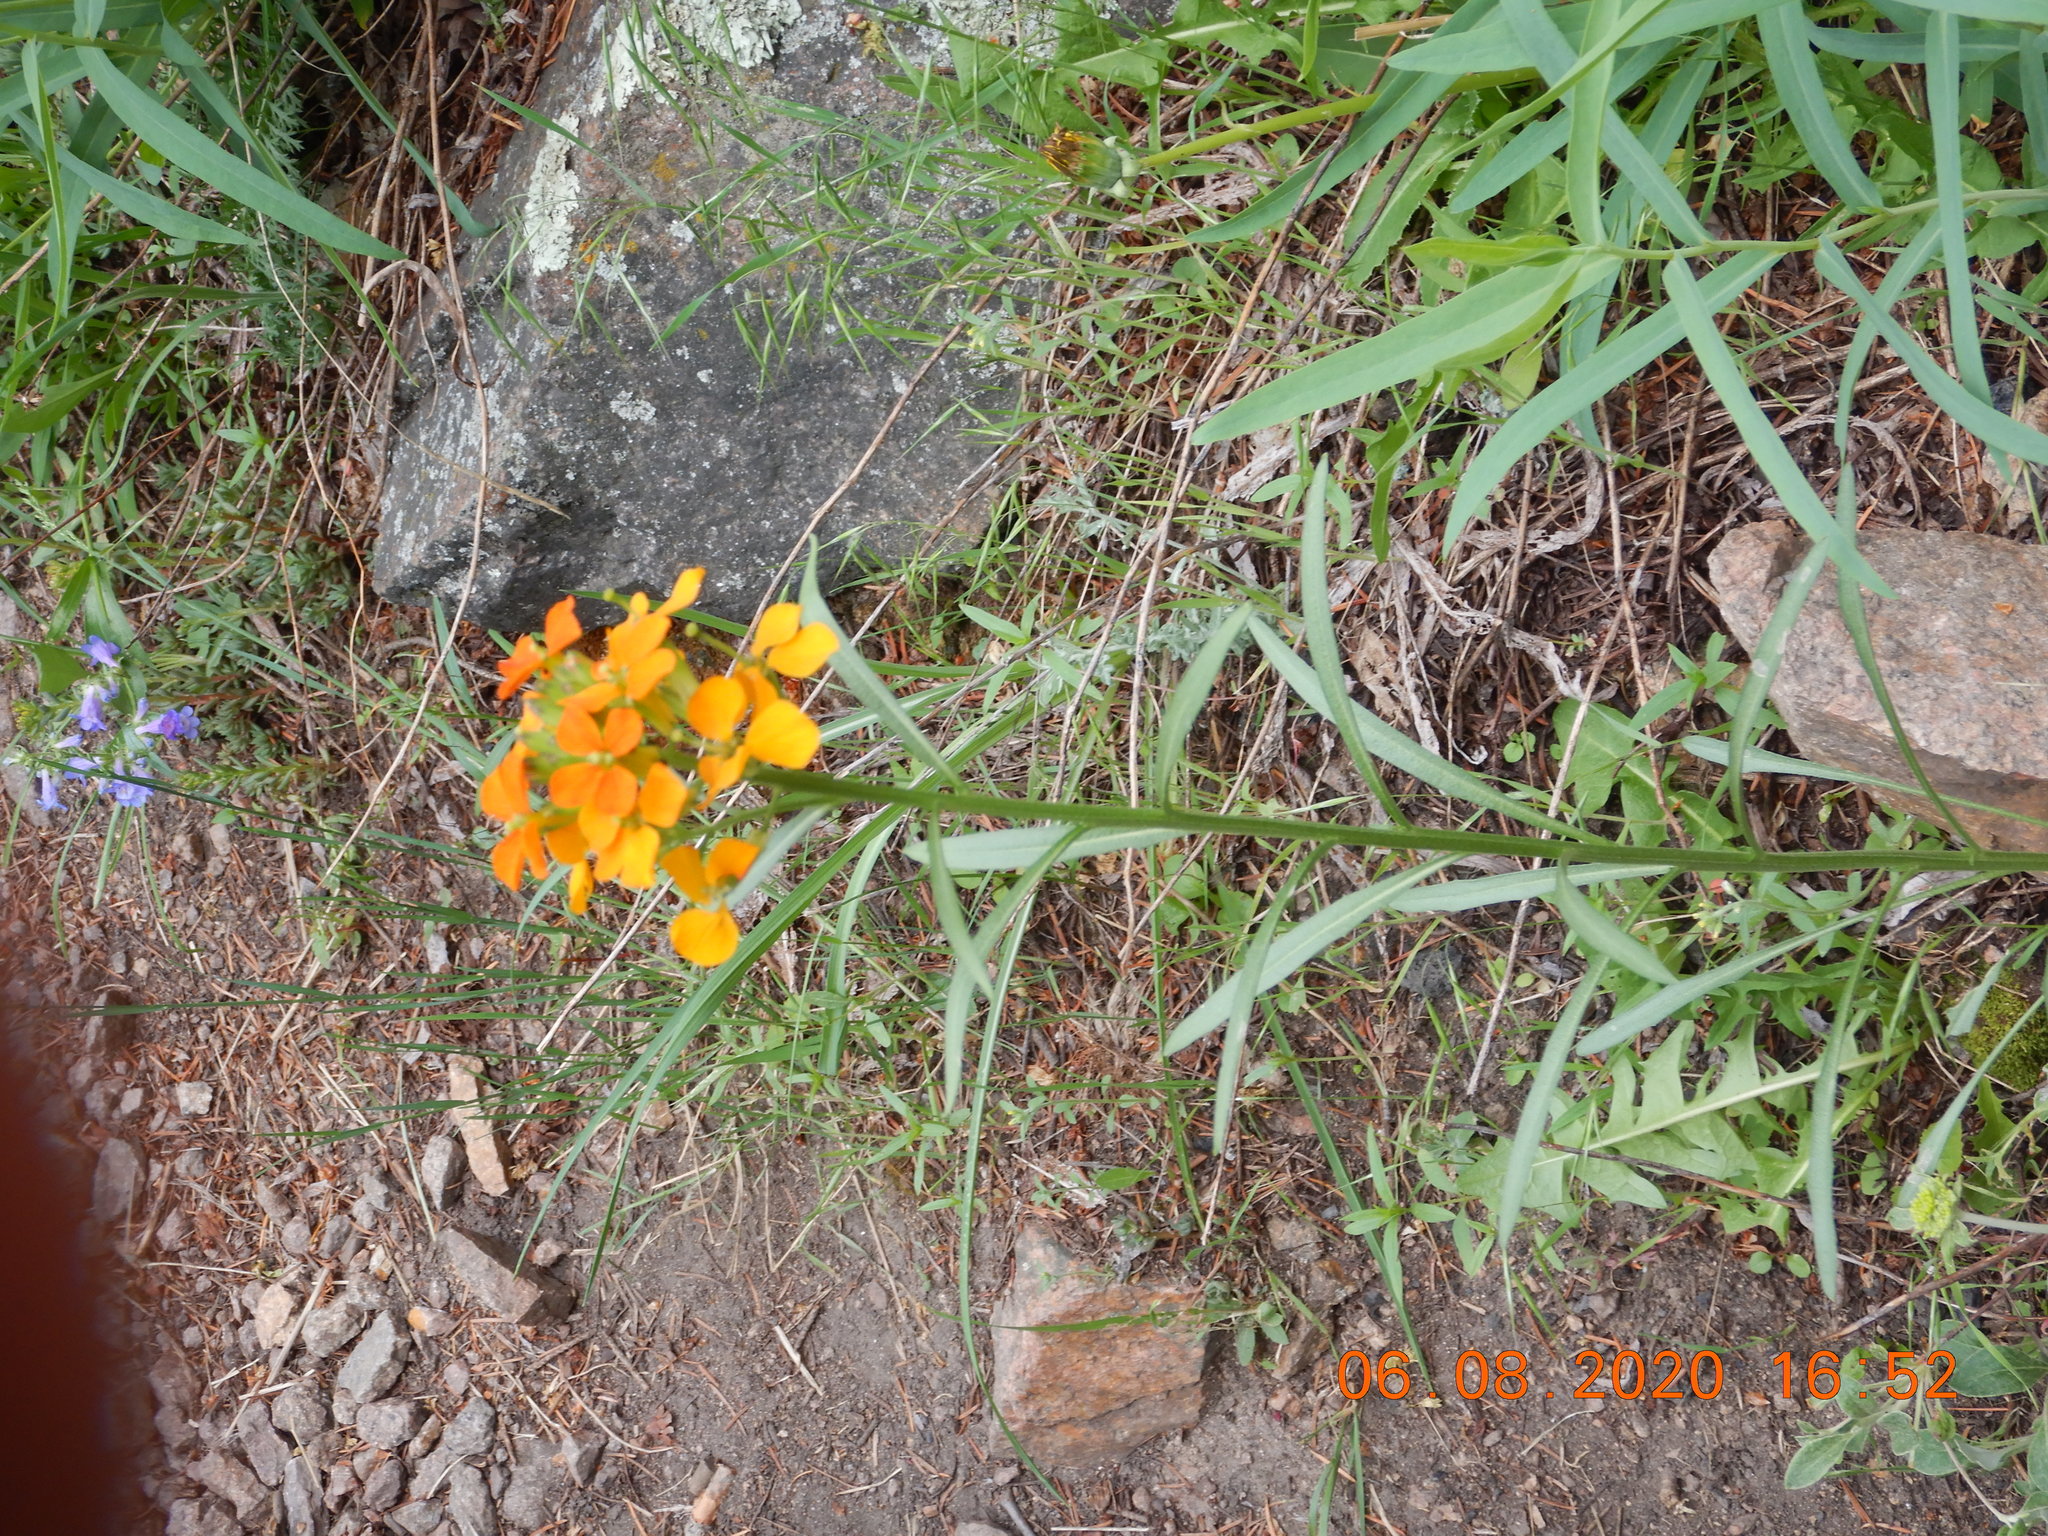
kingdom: Plantae
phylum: Tracheophyta
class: Magnoliopsida
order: Brassicales
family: Brassicaceae
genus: Erysimum
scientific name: Erysimum capitatum
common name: Western wallflower
